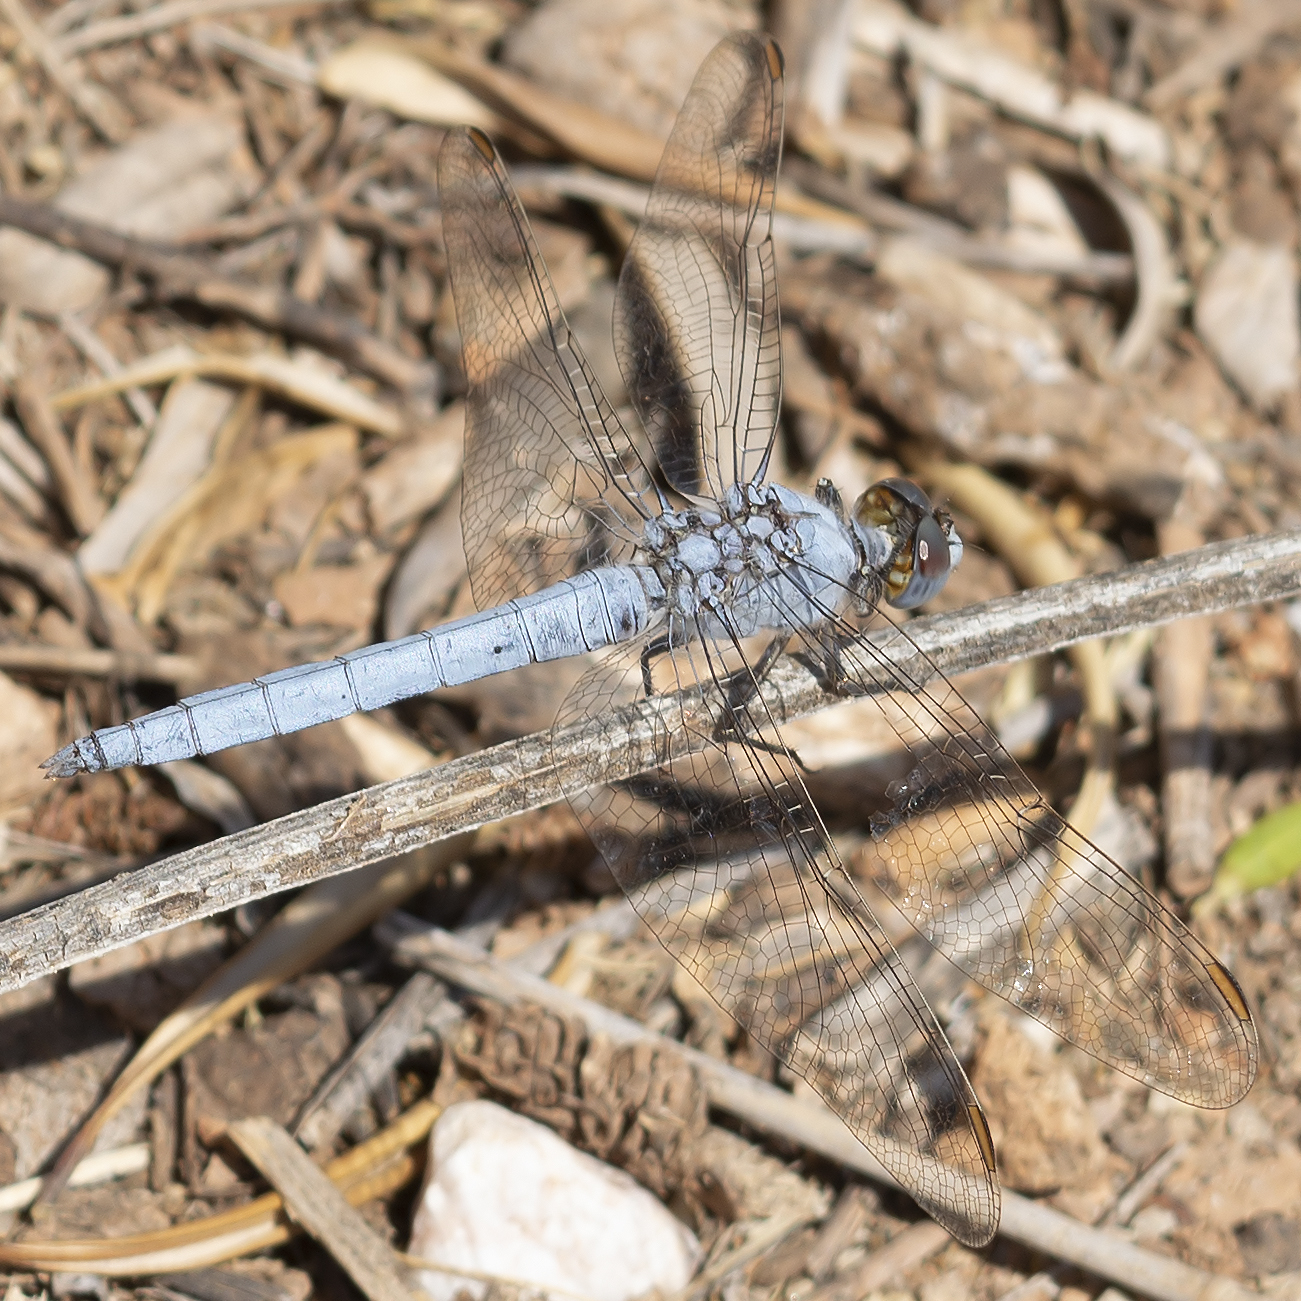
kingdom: Animalia
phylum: Arthropoda
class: Insecta
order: Odonata
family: Libellulidae
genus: Orthetrum
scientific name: Orthetrum taeniolatum
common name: Small skimmer
